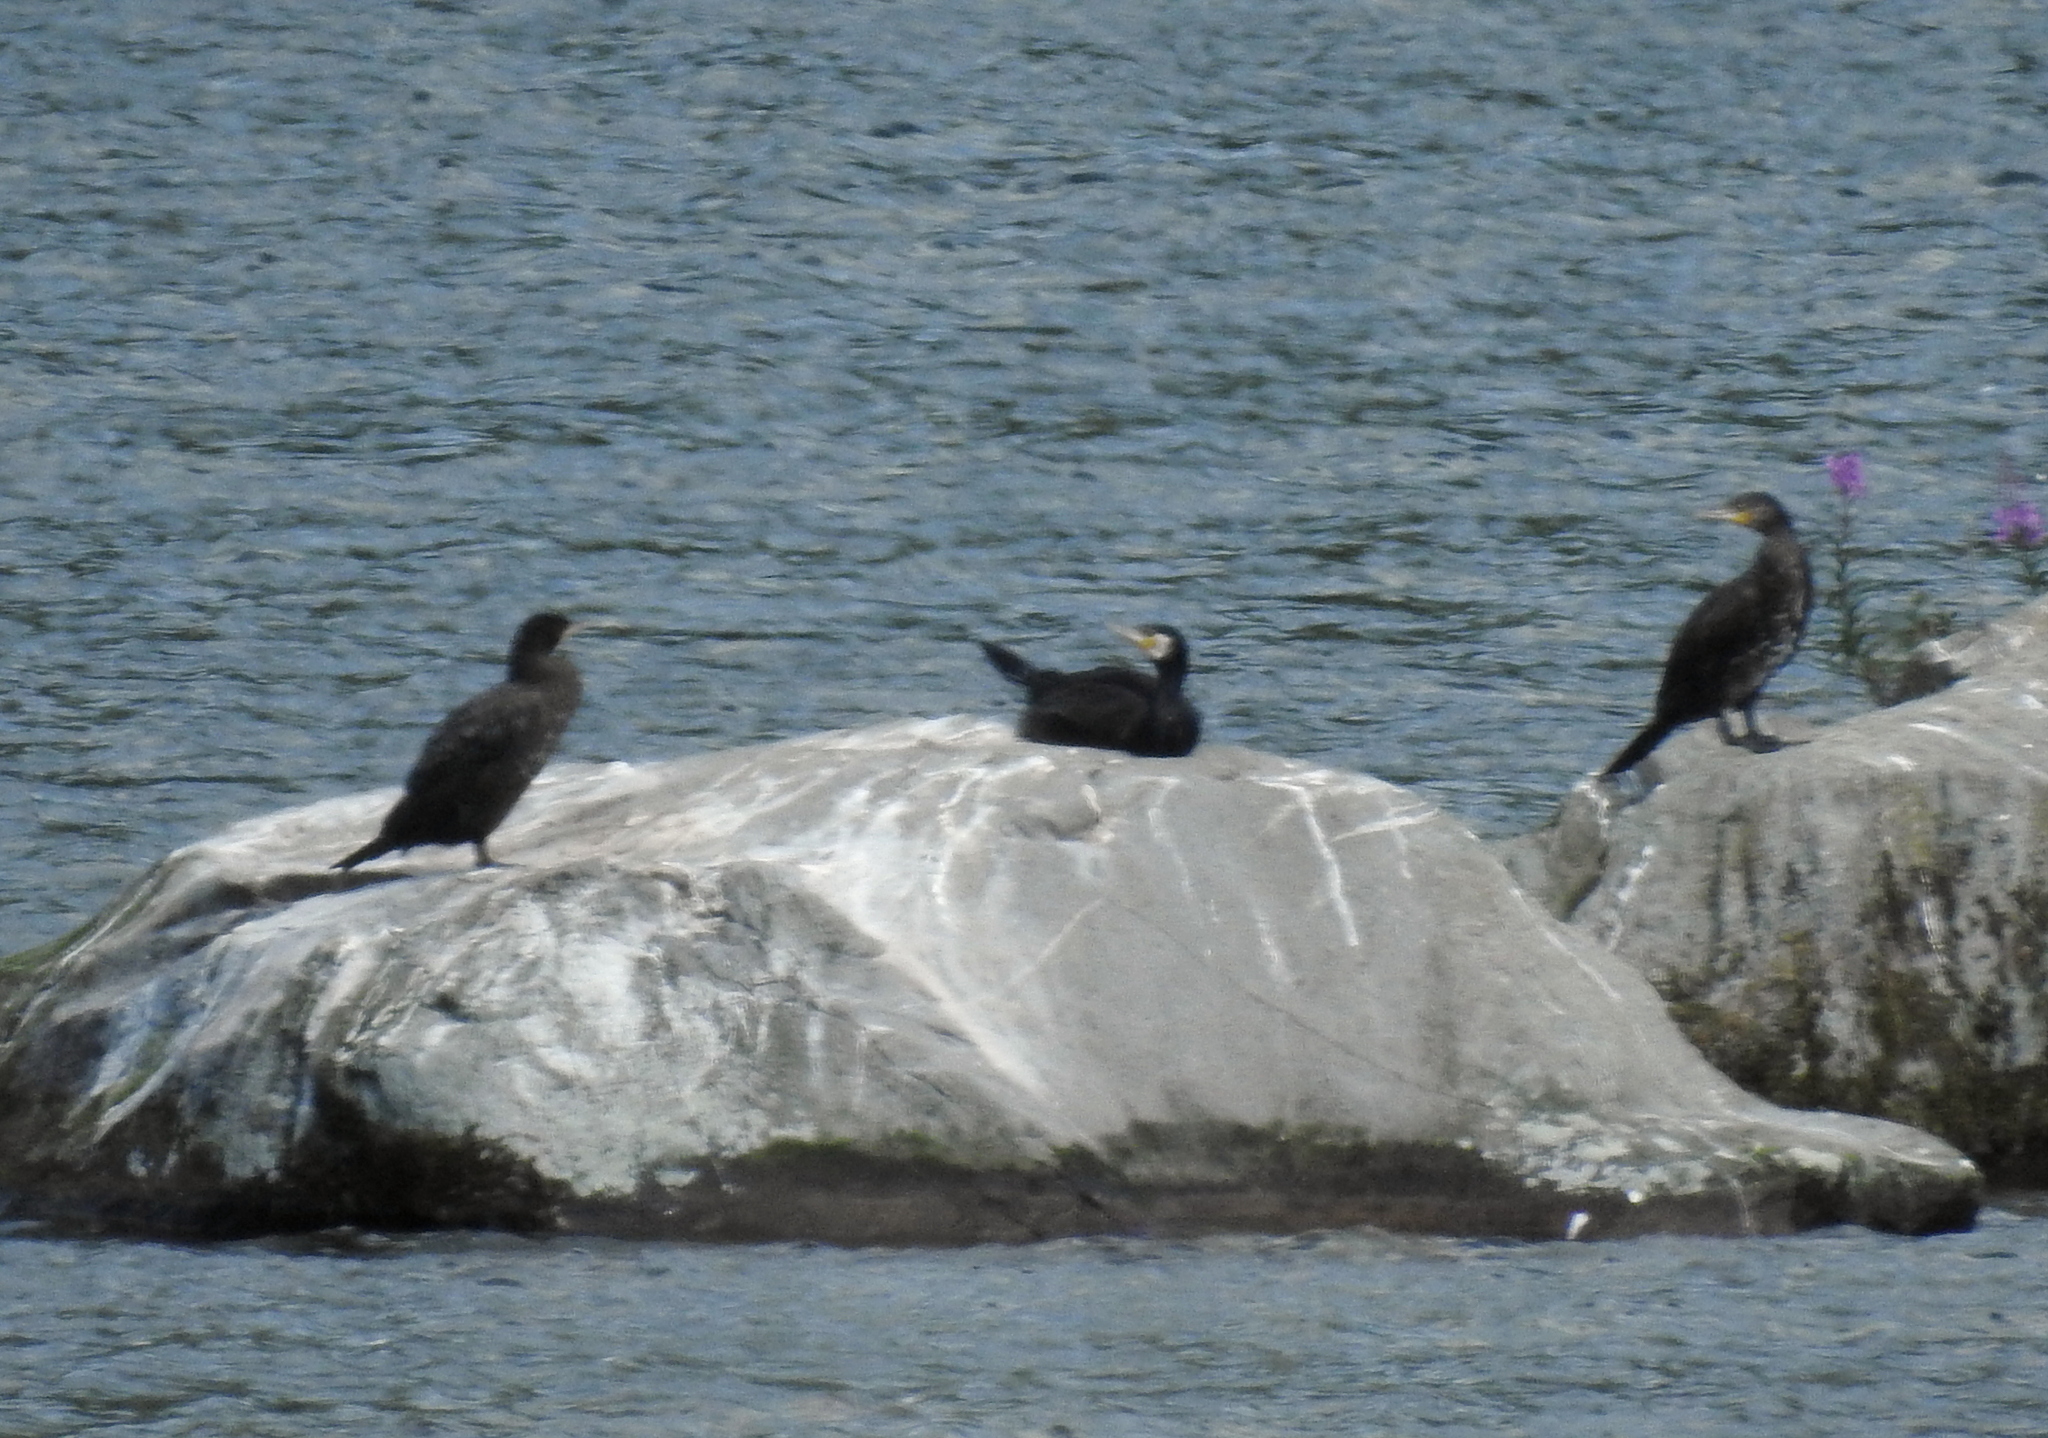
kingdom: Animalia
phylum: Chordata
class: Aves
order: Suliformes
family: Phalacrocoracidae
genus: Phalacrocorax
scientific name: Phalacrocorax carbo
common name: Great cormorant
